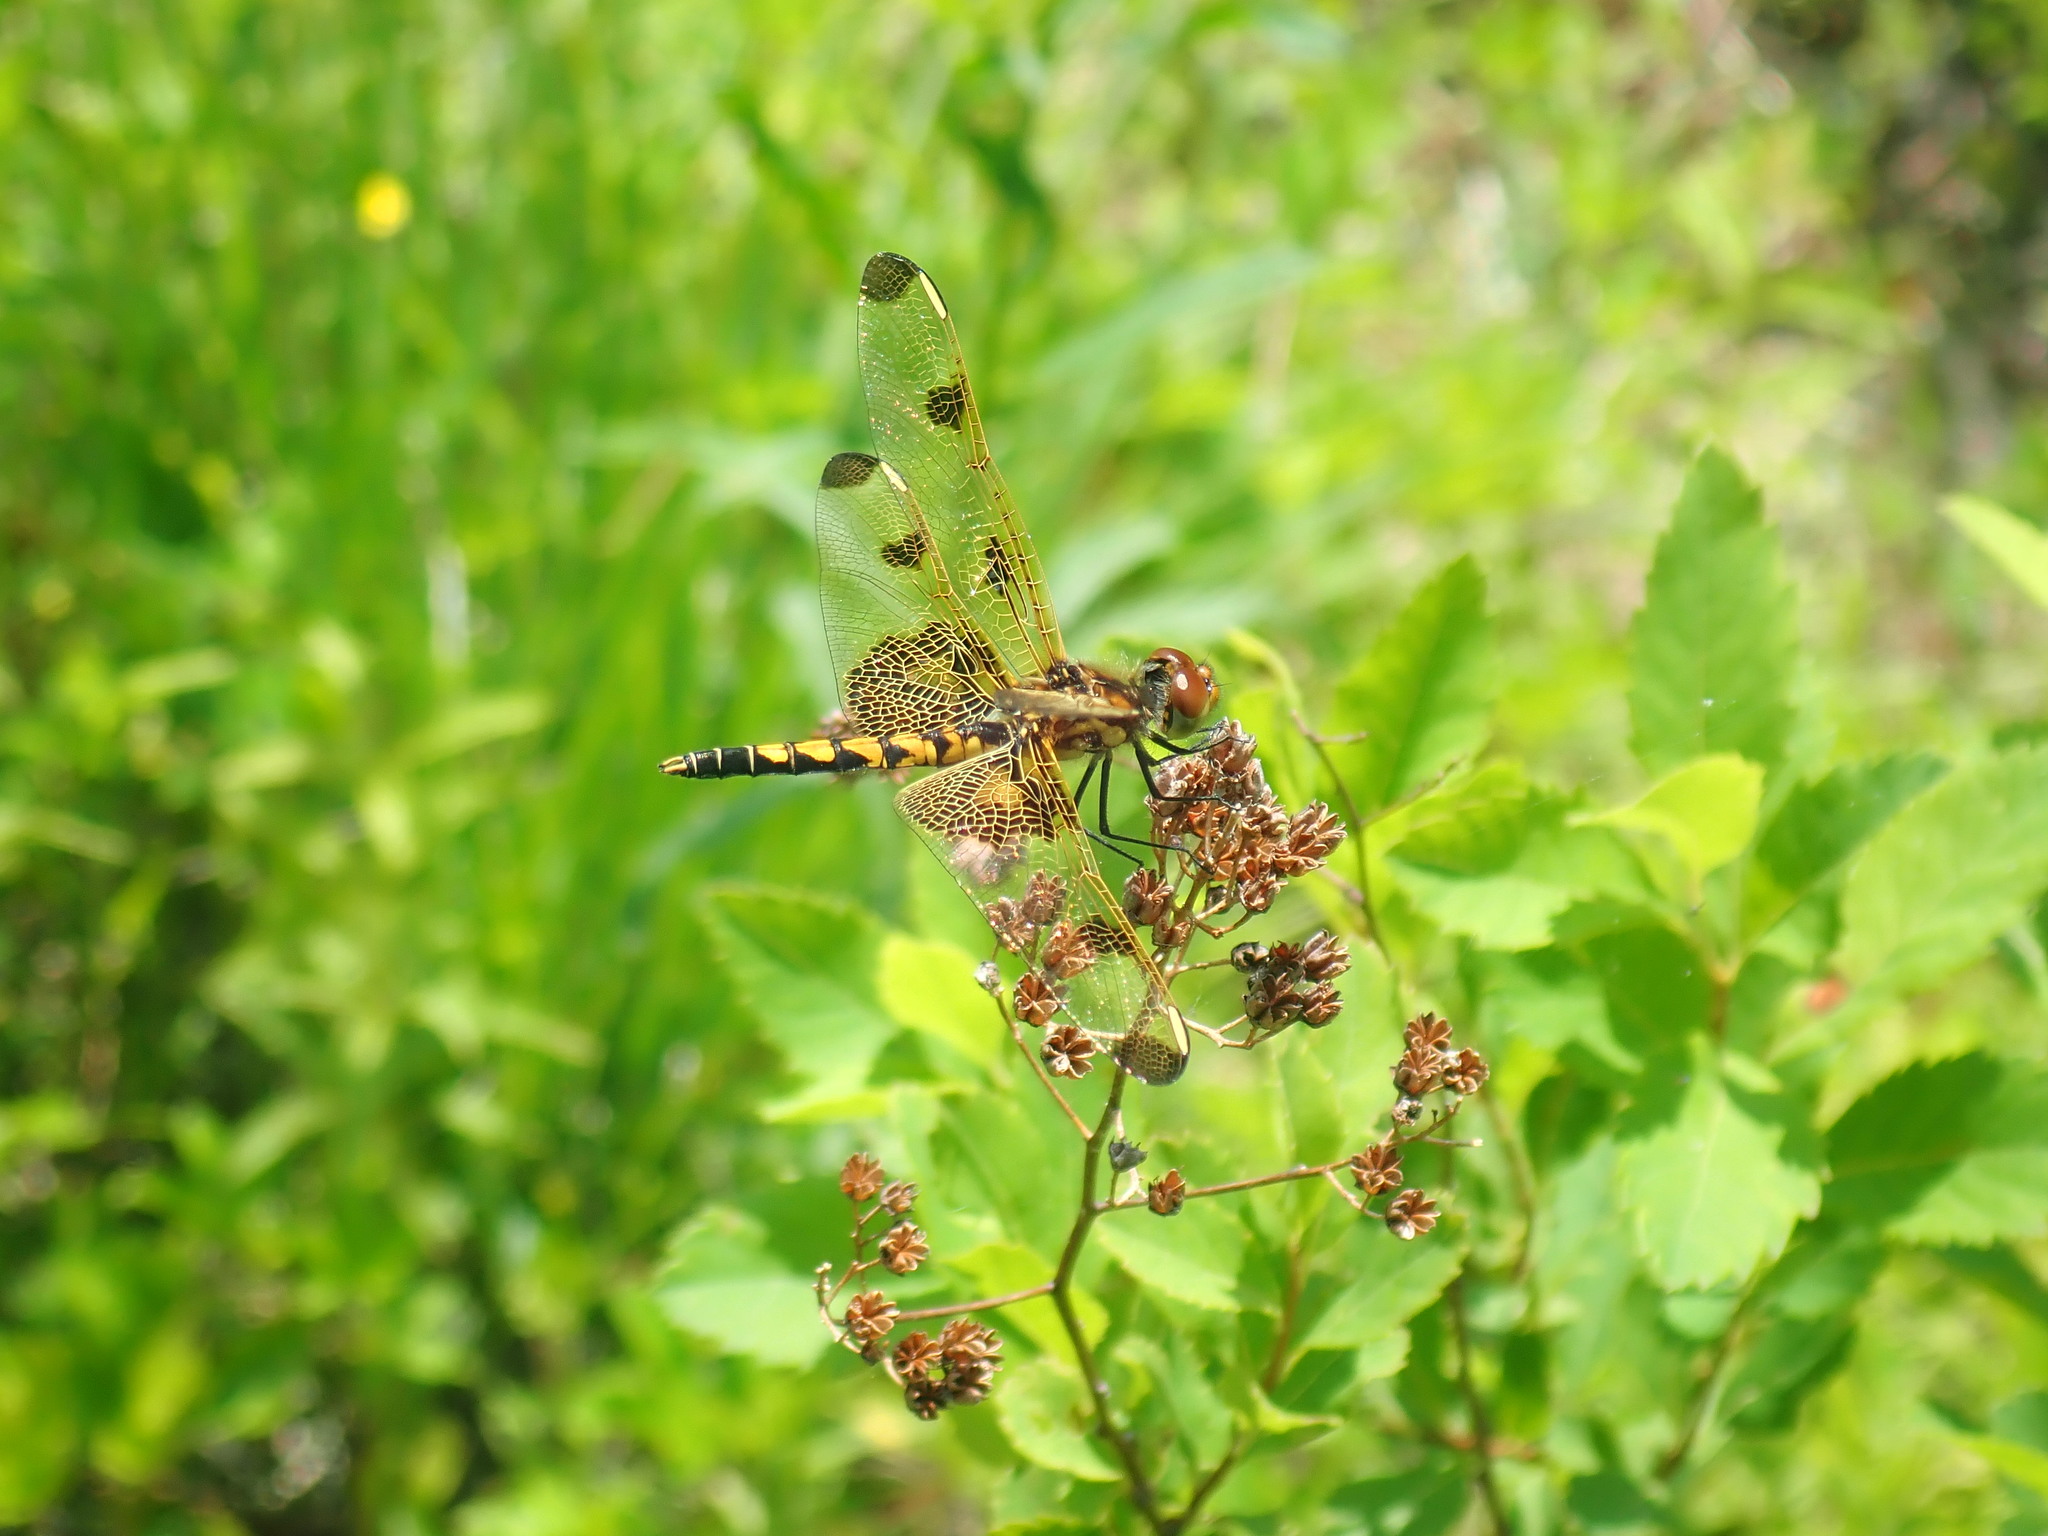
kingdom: Animalia
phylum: Arthropoda
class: Insecta
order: Odonata
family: Libellulidae
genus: Celithemis
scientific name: Celithemis elisa
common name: Calico pennant
